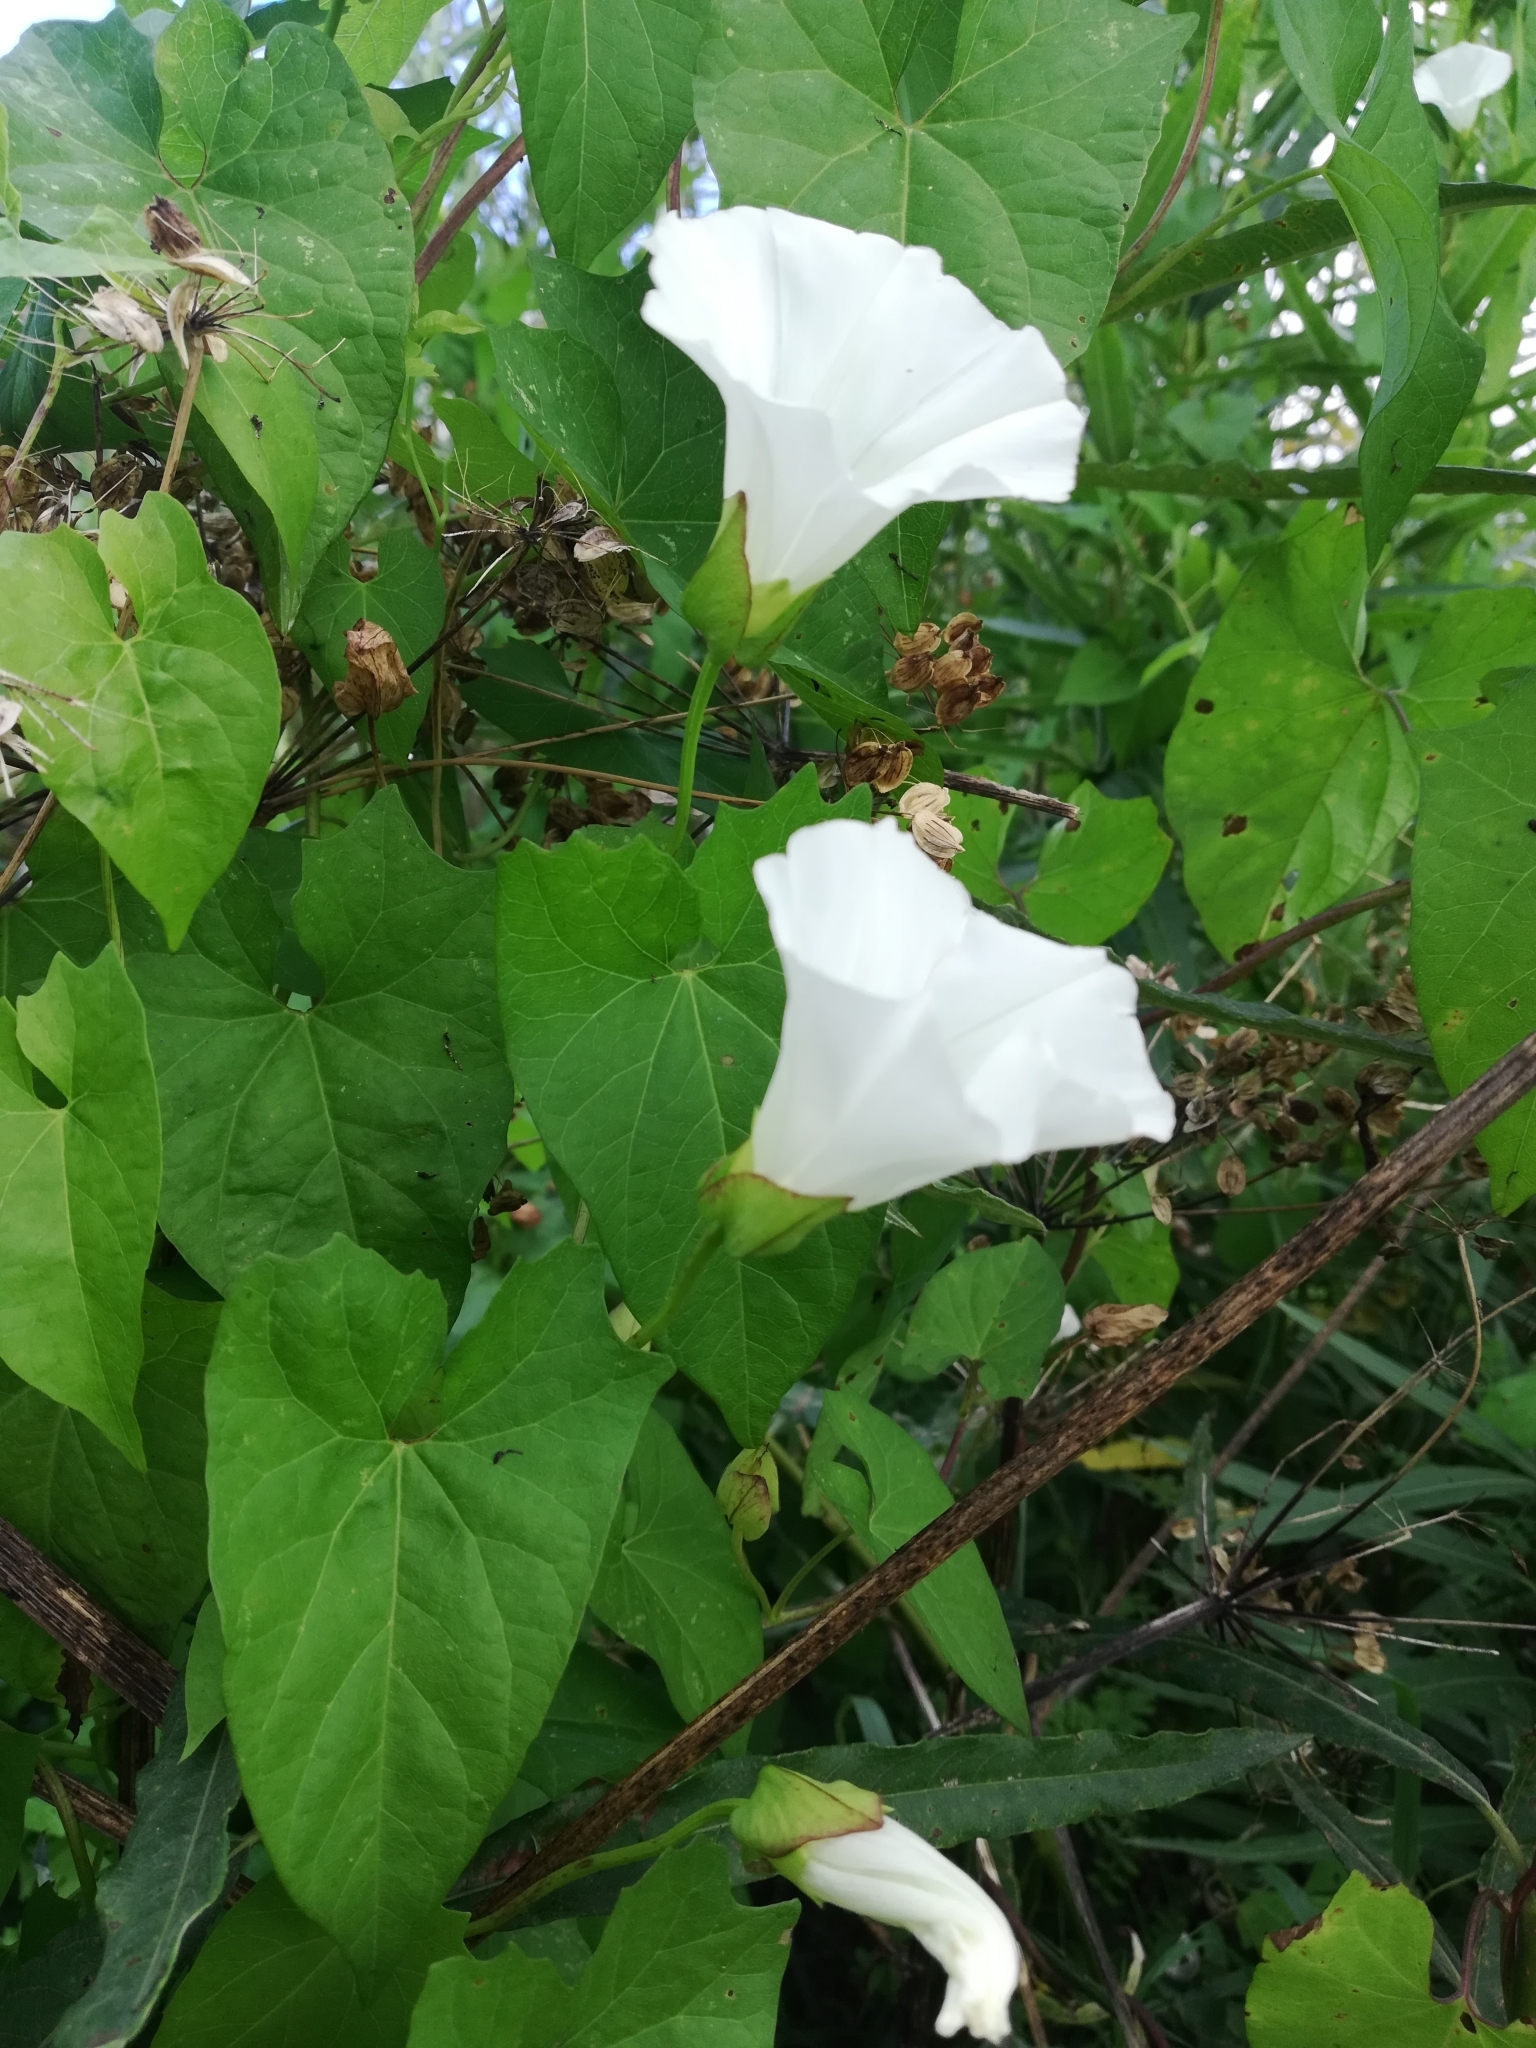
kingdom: Plantae
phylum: Tracheophyta
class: Magnoliopsida
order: Solanales
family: Convolvulaceae
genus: Calystegia
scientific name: Calystegia sepium
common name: Hedge bindweed
